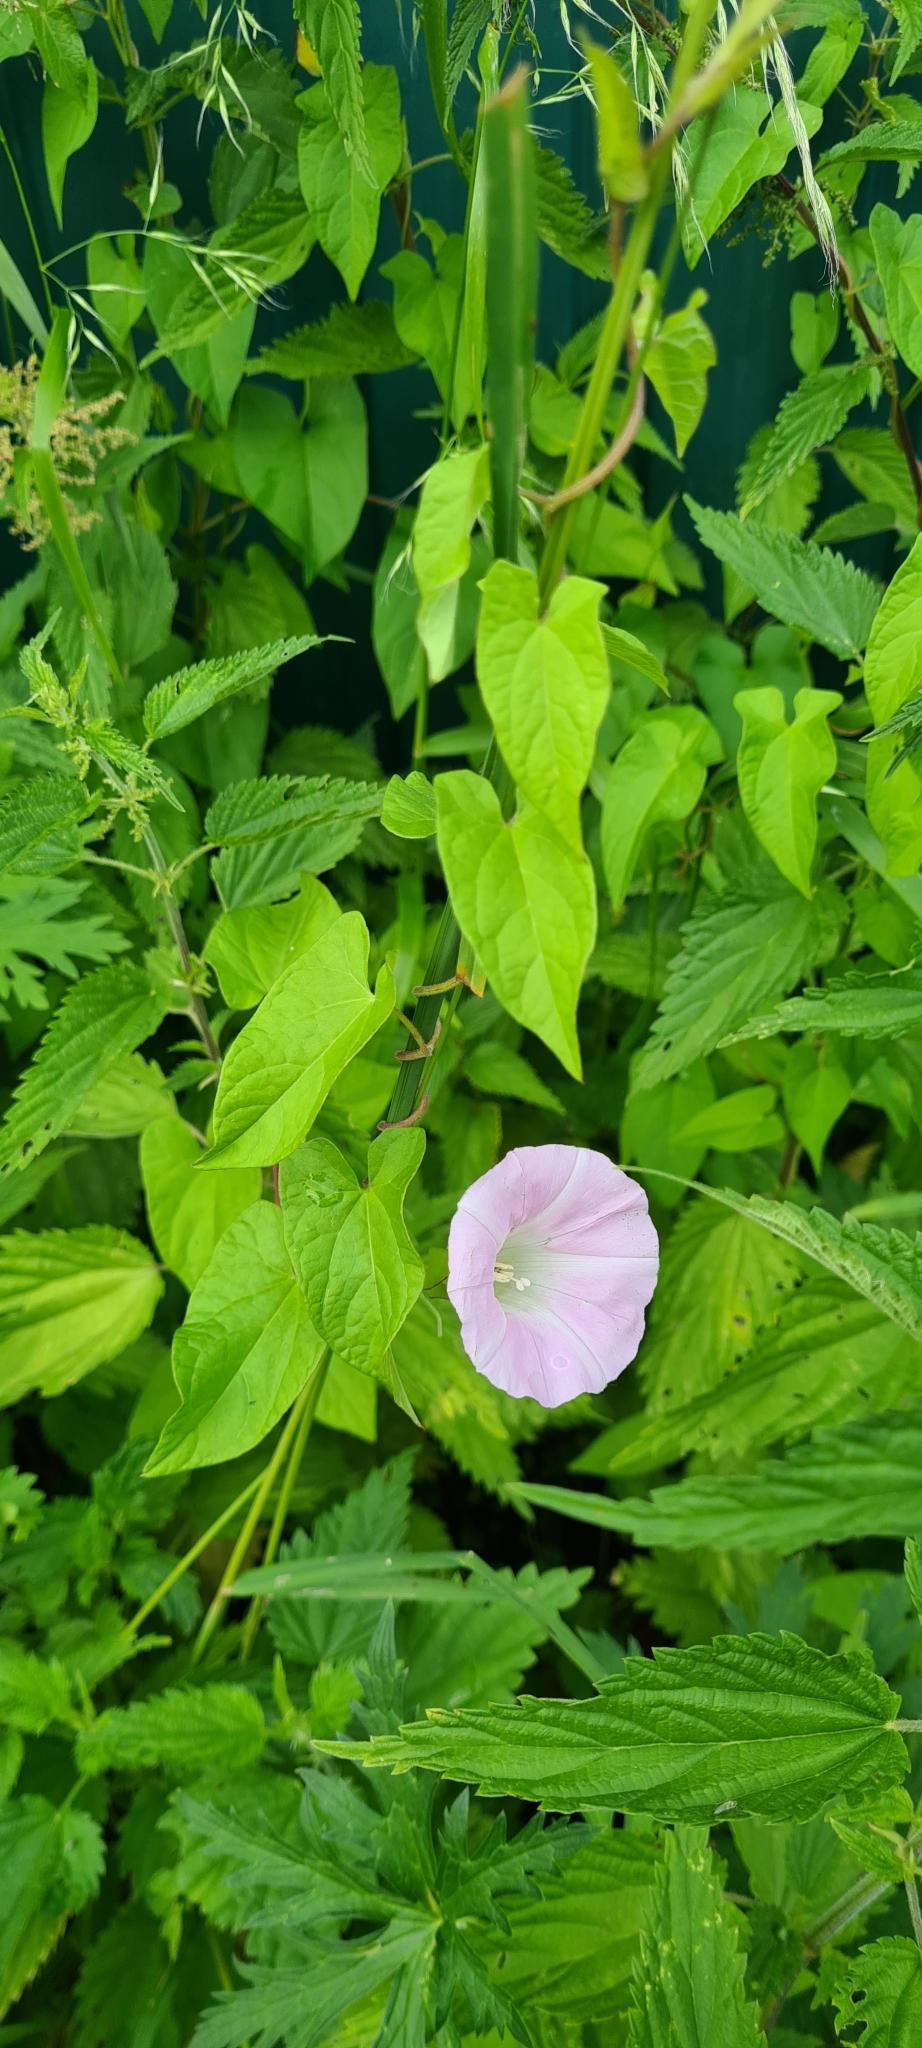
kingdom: Plantae
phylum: Tracheophyta
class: Magnoliopsida
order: Solanales
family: Convolvulaceae
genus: Calystegia
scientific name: Calystegia sepium
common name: Hedge bindweed
